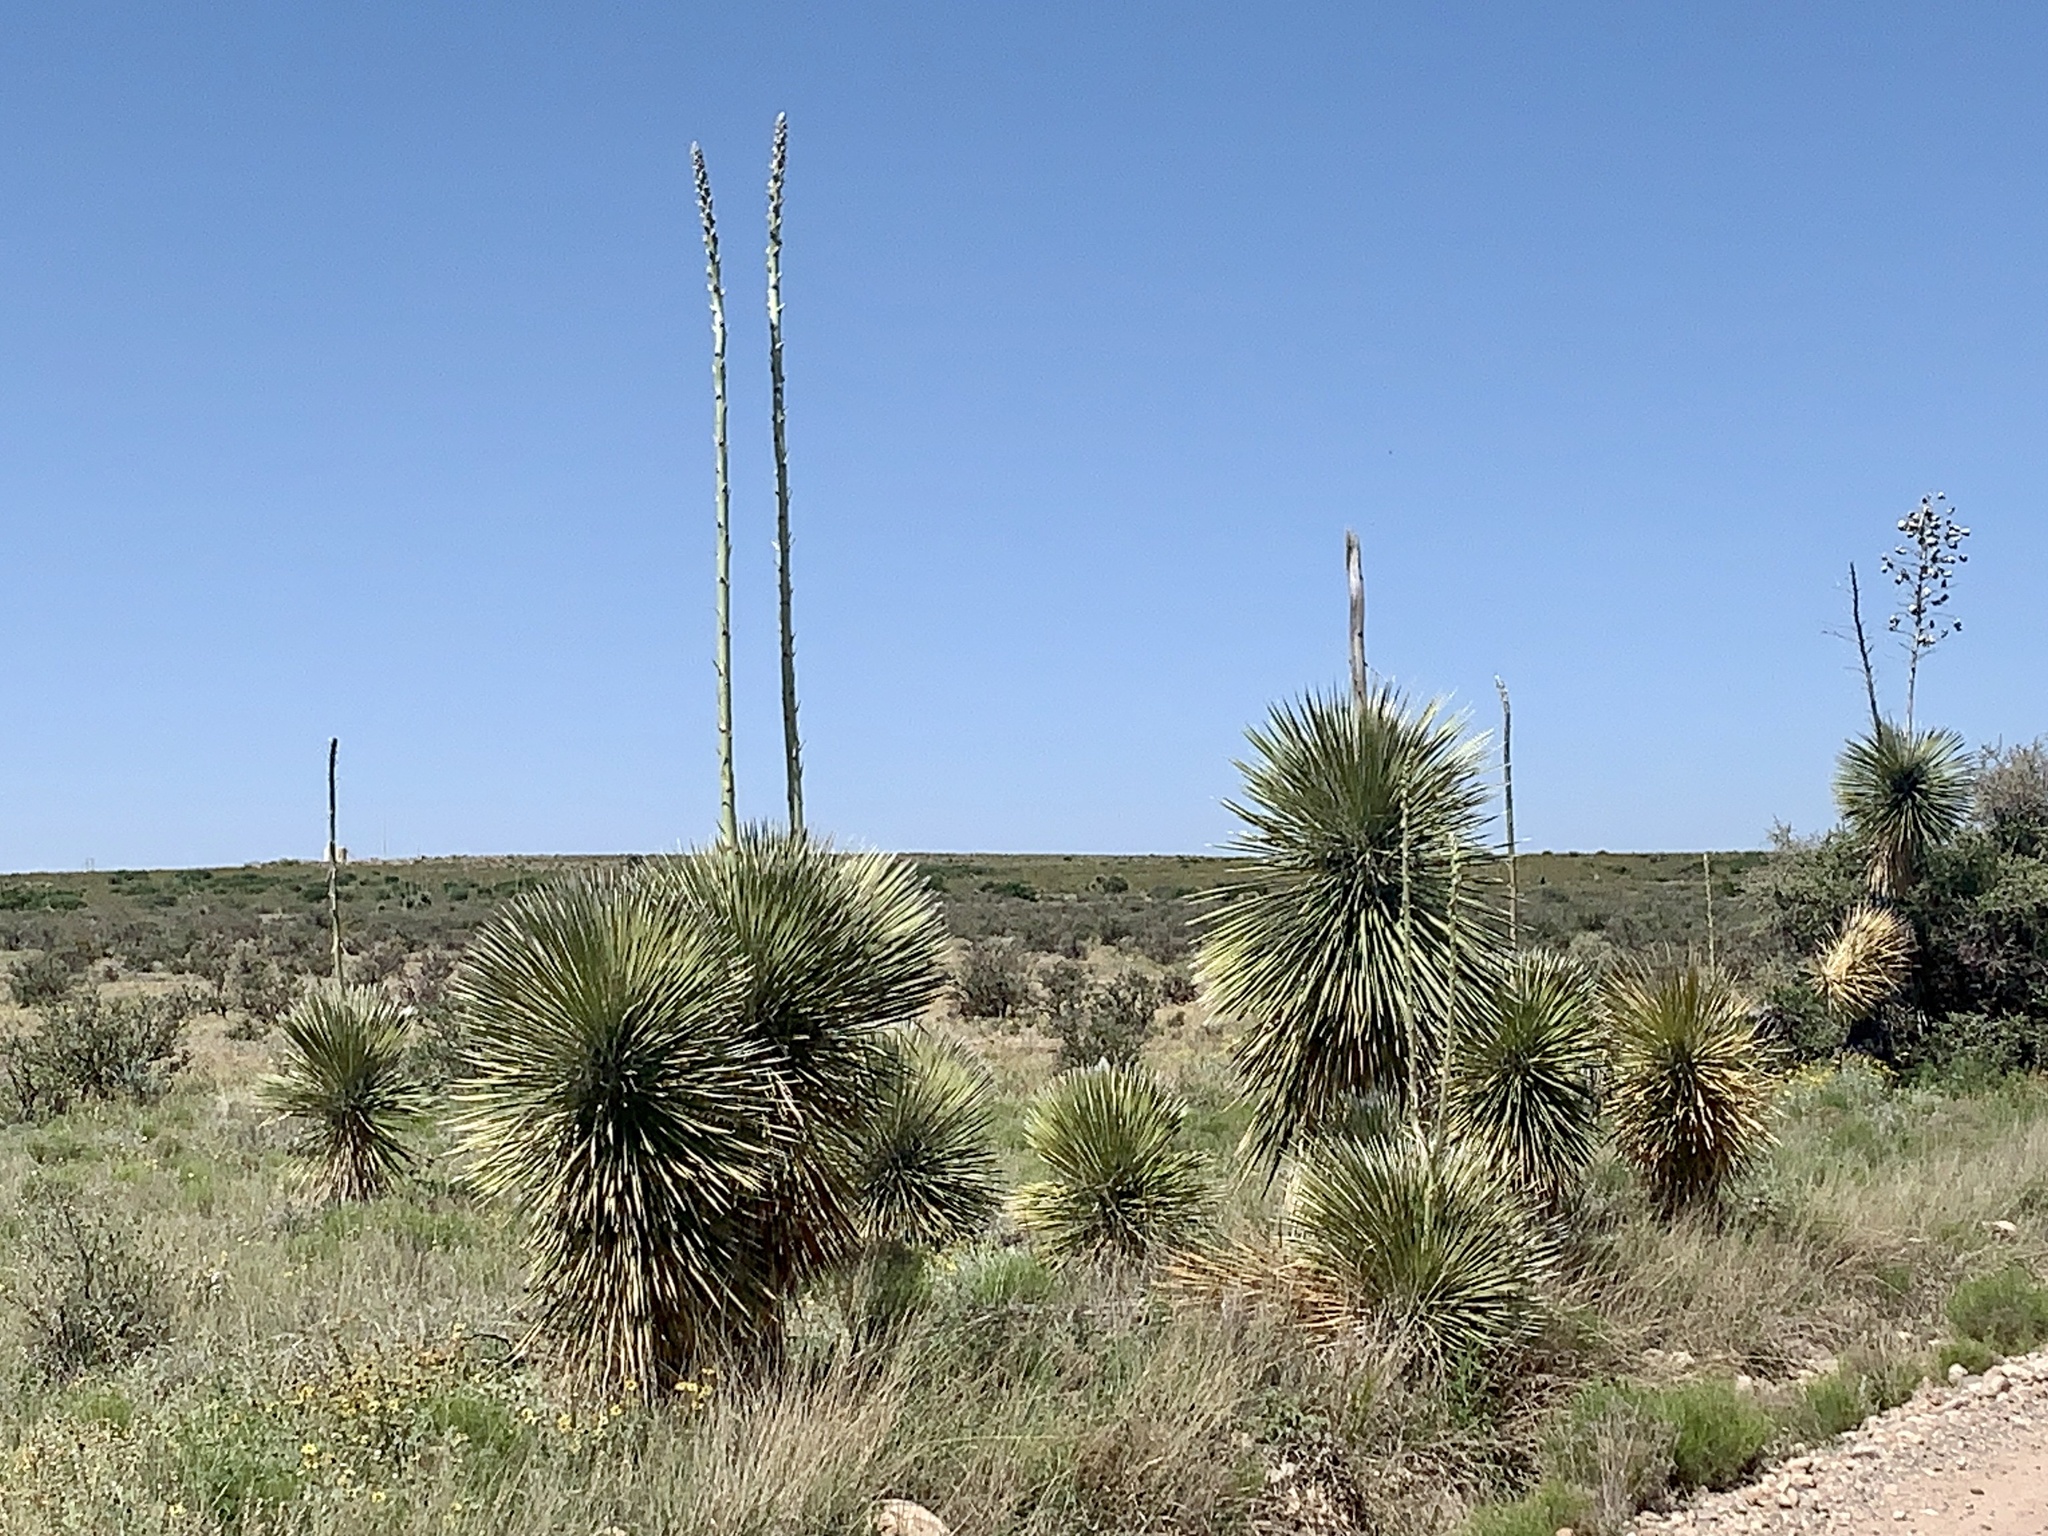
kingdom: Plantae
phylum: Tracheophyta
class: Liliopsida
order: Asparagales
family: Asparagaceae
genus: Yucca
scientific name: Yucca elata
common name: Palmella
